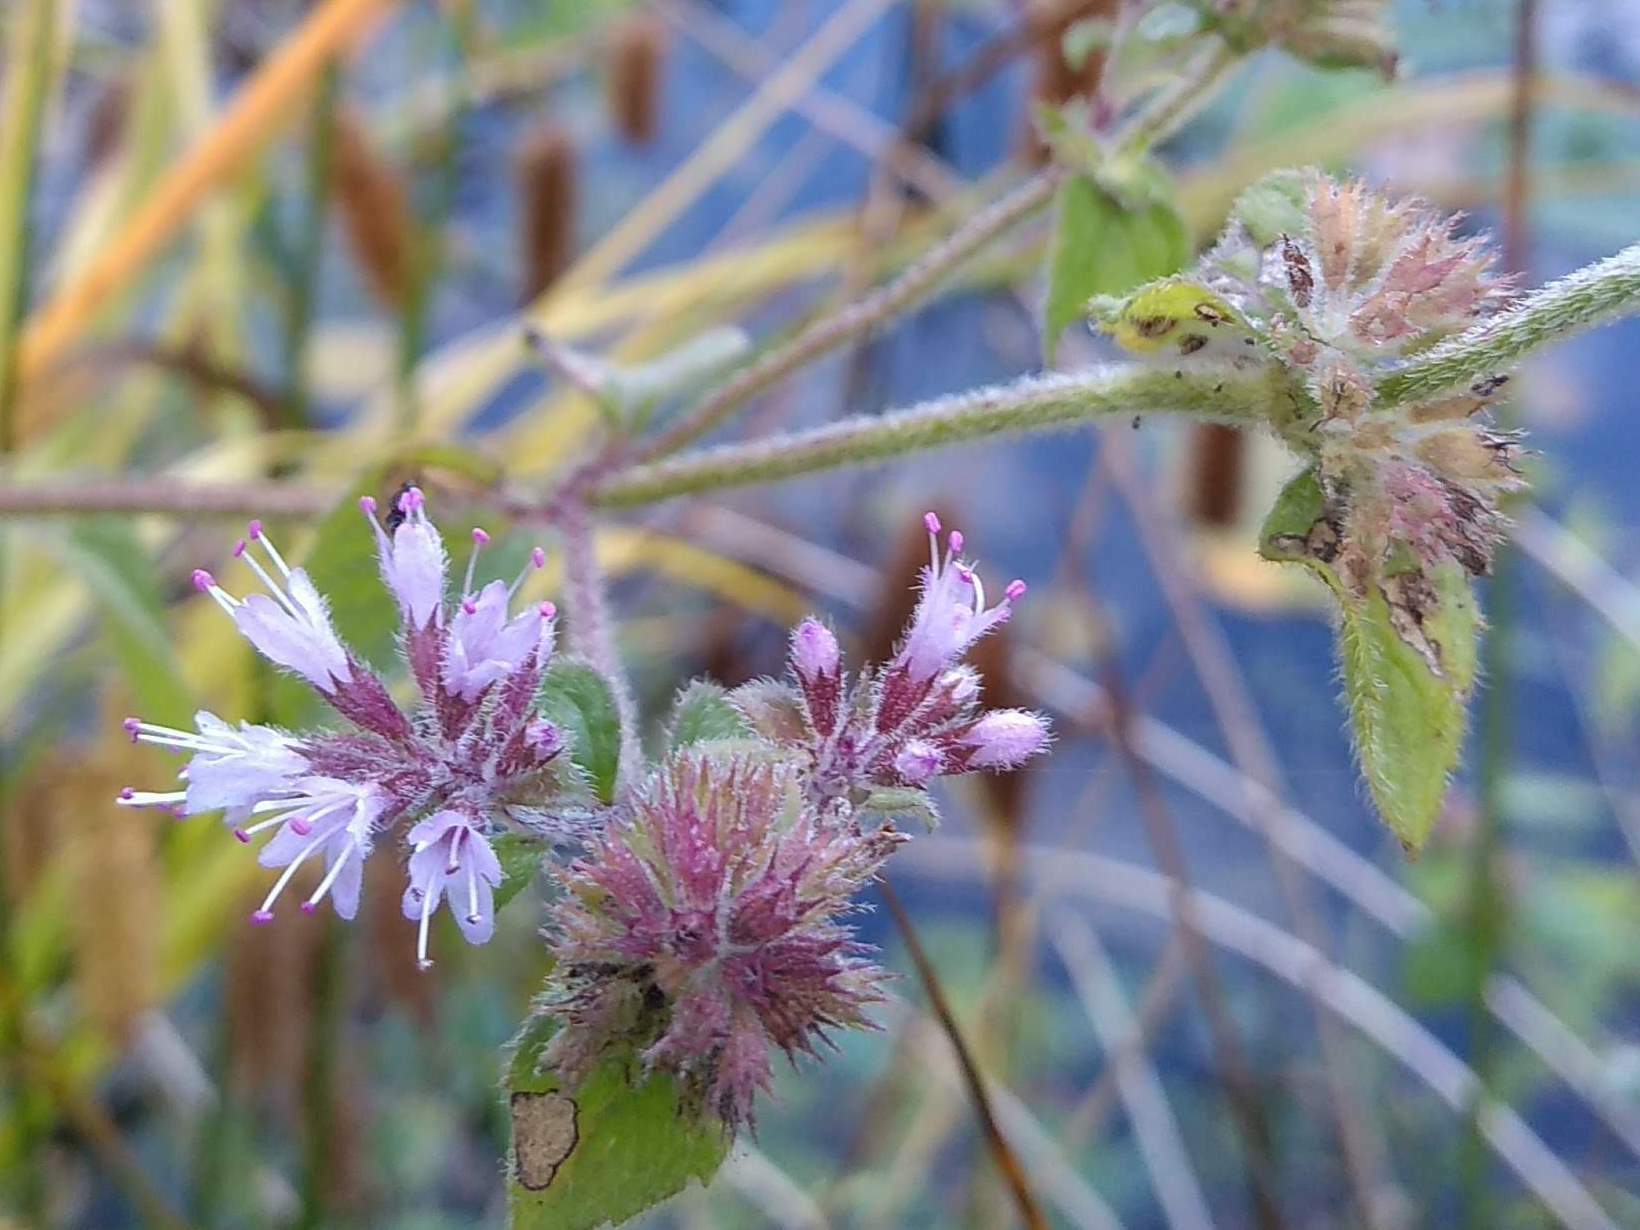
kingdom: Plantae
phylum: Tracheophyta
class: Magnoliopsida
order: Lamiales
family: Lamiaceae
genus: Mentha
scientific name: Mentha aquatica
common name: Water mint
